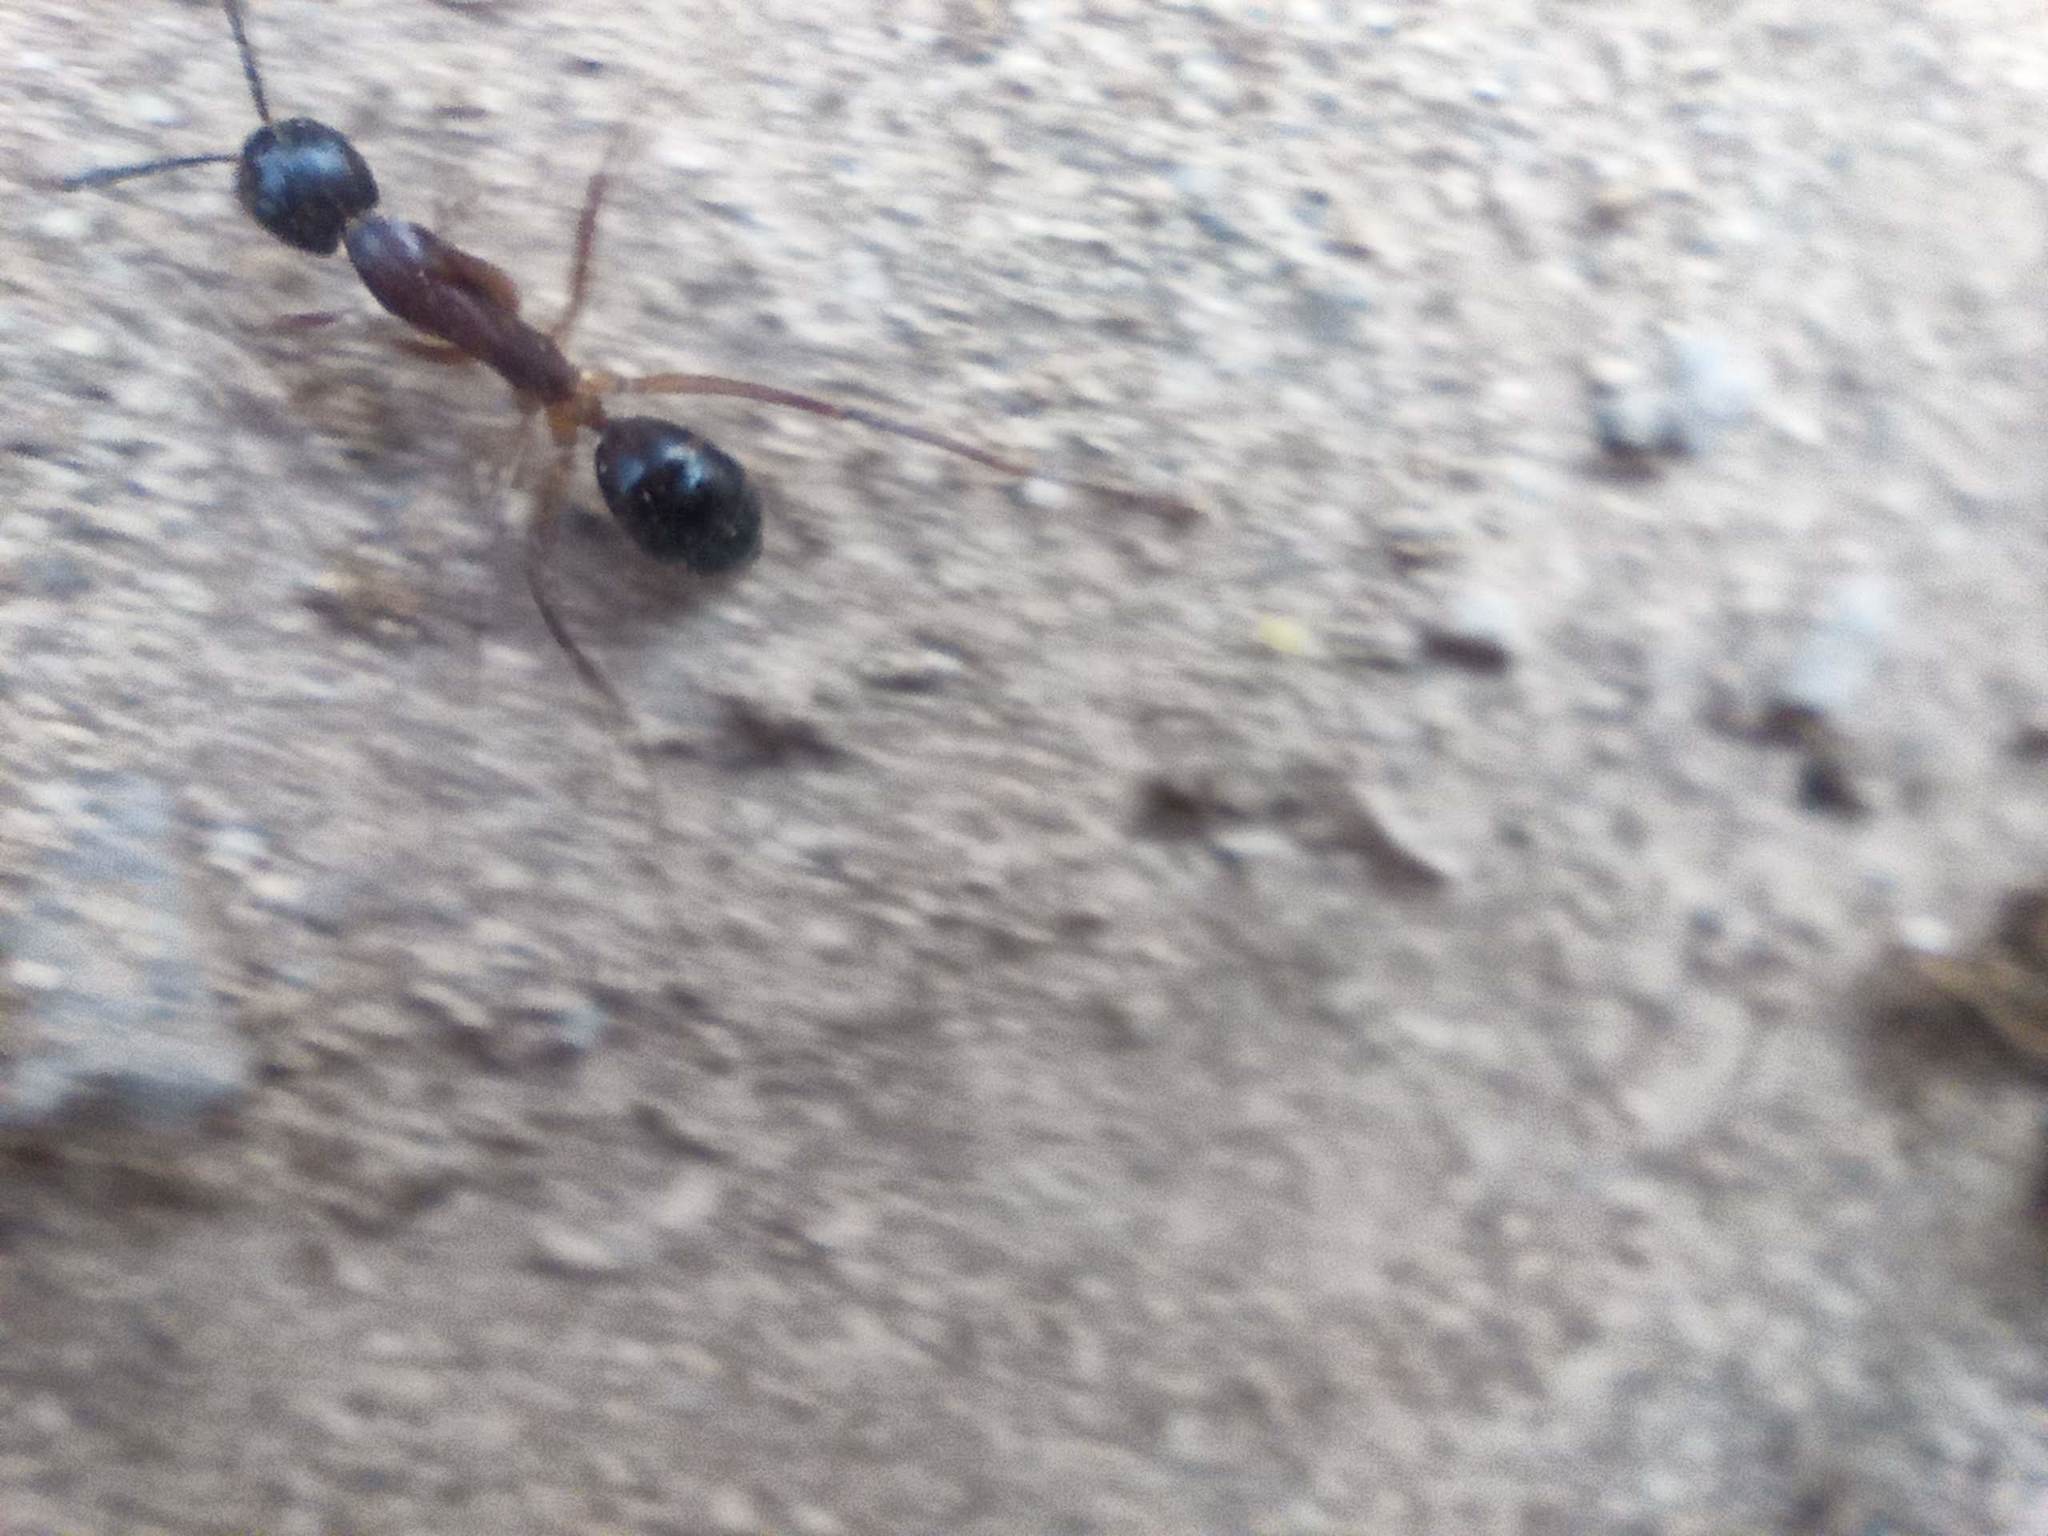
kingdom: Animalia
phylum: Arthropoda
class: Insecta
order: Hymenoptera
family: Formicidae
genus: Camponotus
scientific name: Camponotus brunni
